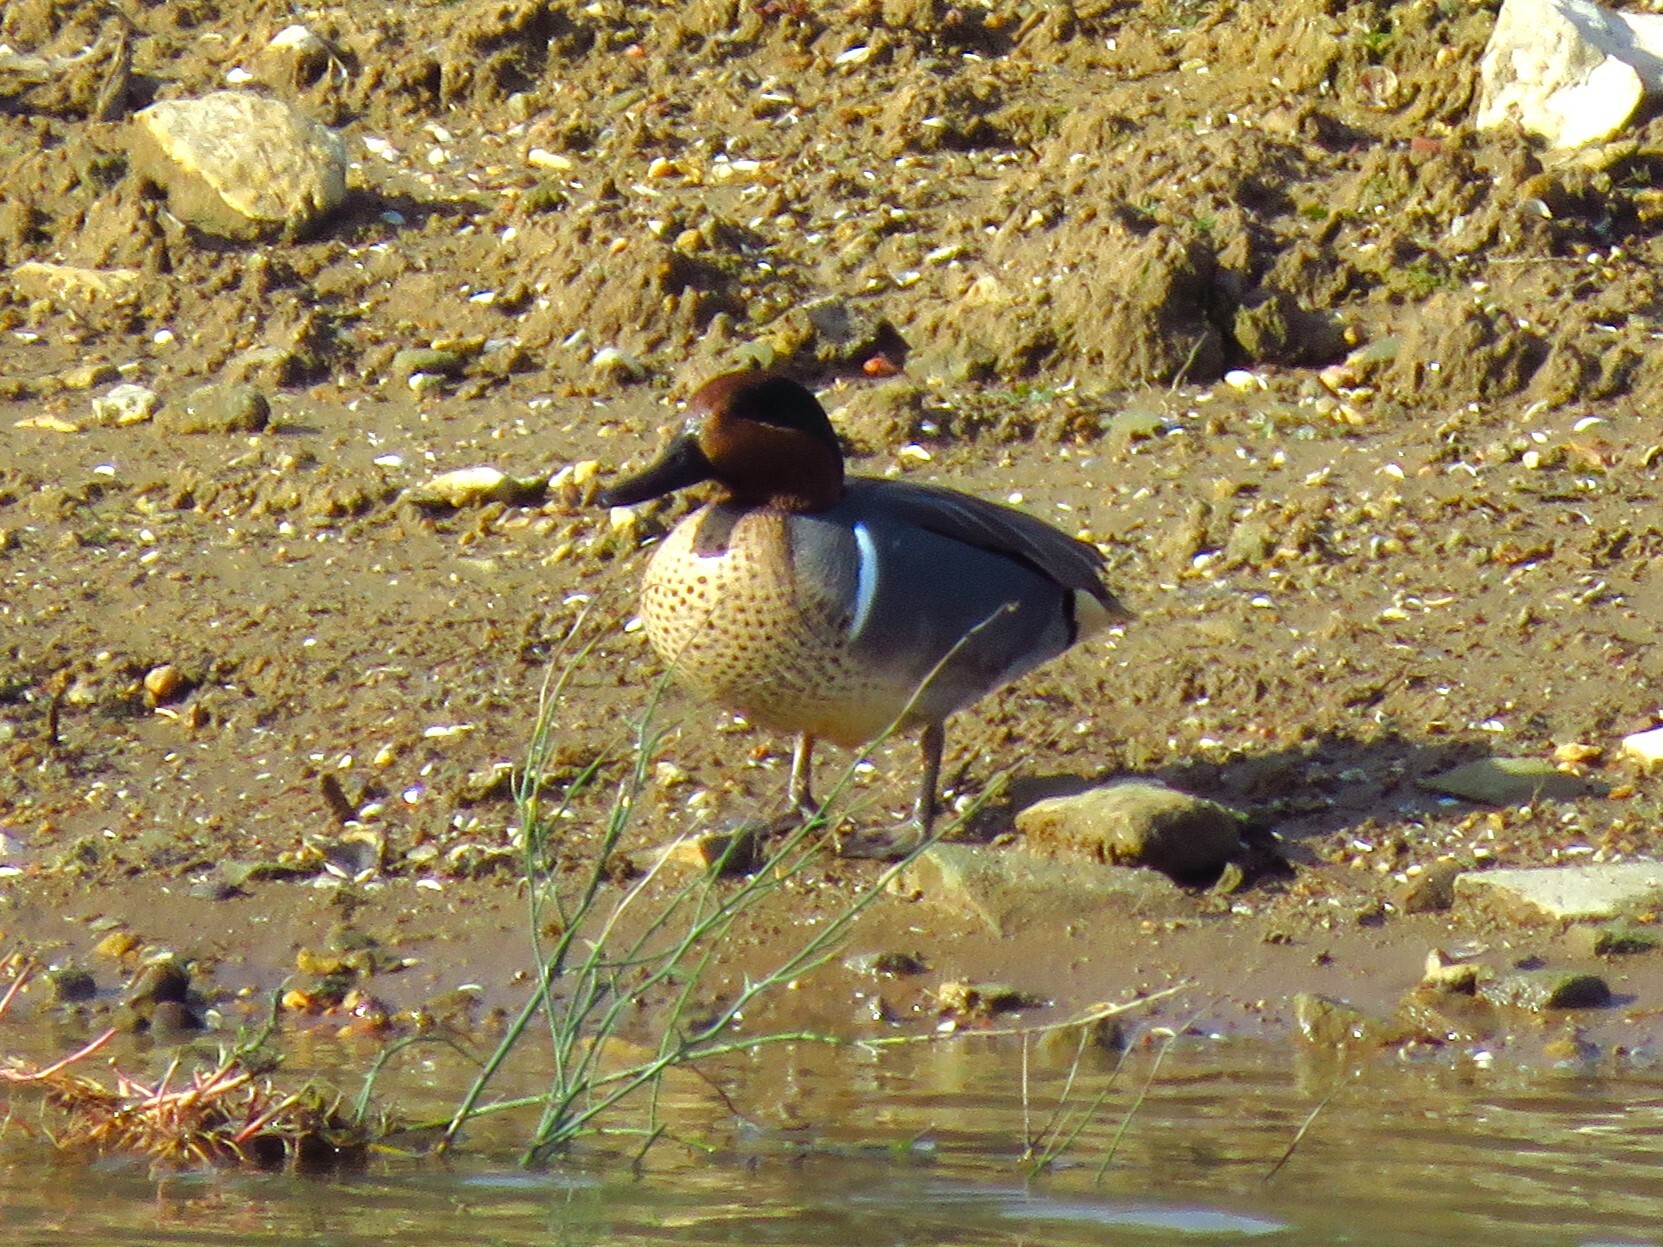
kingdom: Animalia
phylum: Chordata
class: Aves
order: Anseriformes
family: Anatidae
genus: Anas
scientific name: Anas crecca
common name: Eurasian teal
